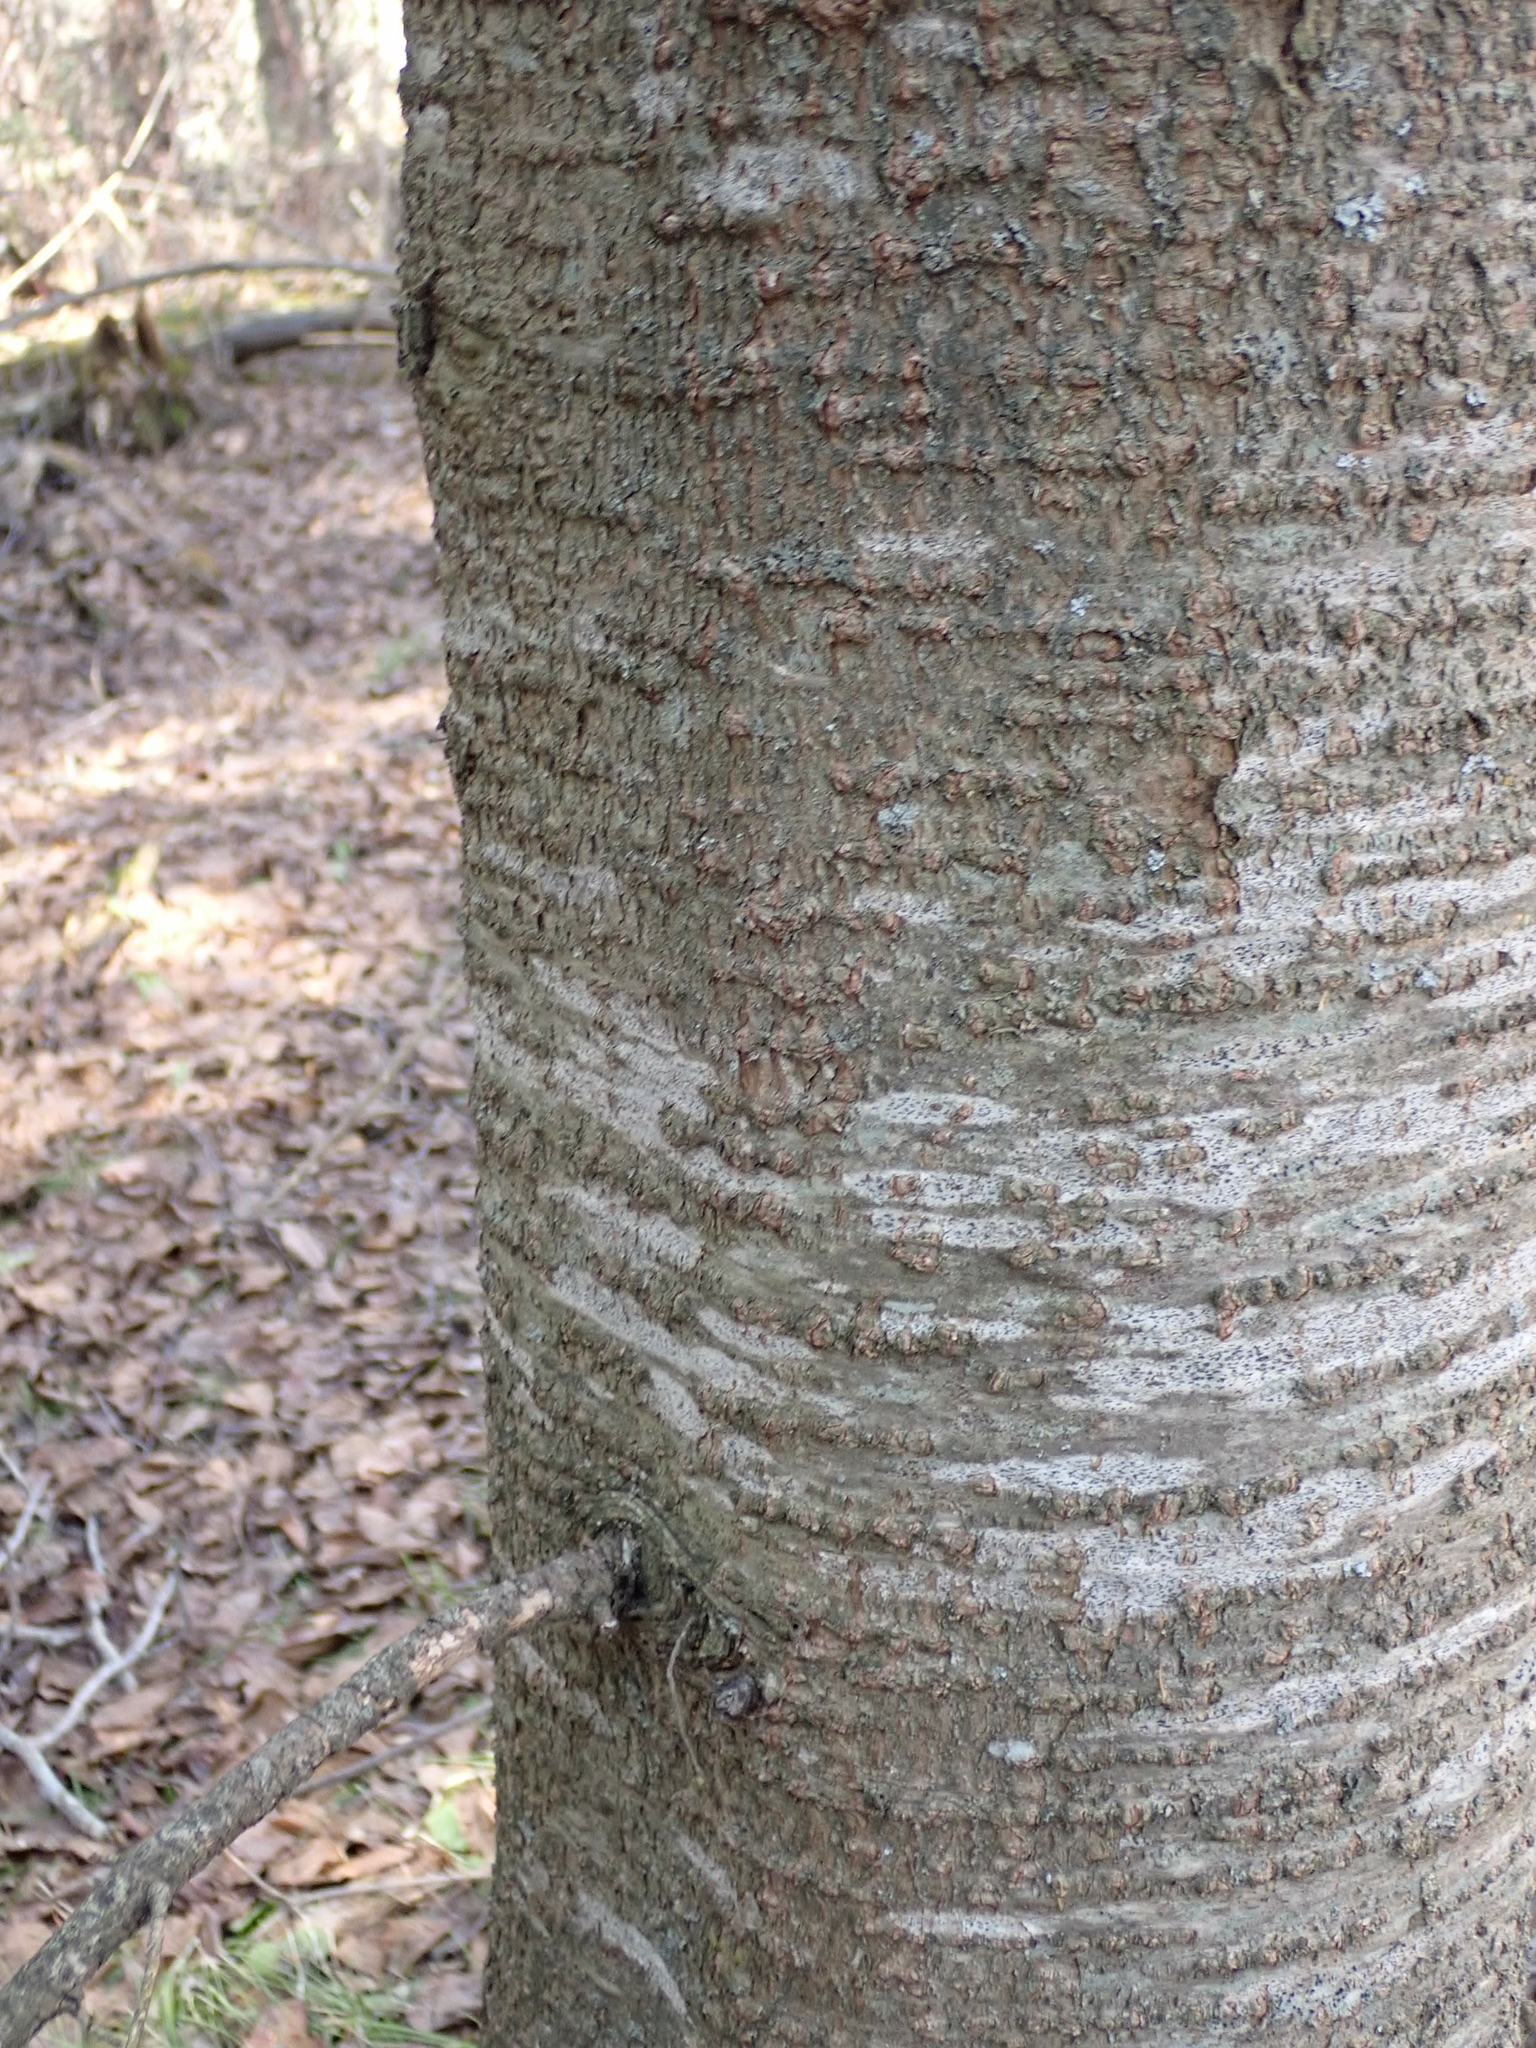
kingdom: Plantae
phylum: Tracheophyta
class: Pinopsida
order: Pinales
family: Pinaceae
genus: Abies
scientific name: Abies balsamea
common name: Balsam fir
